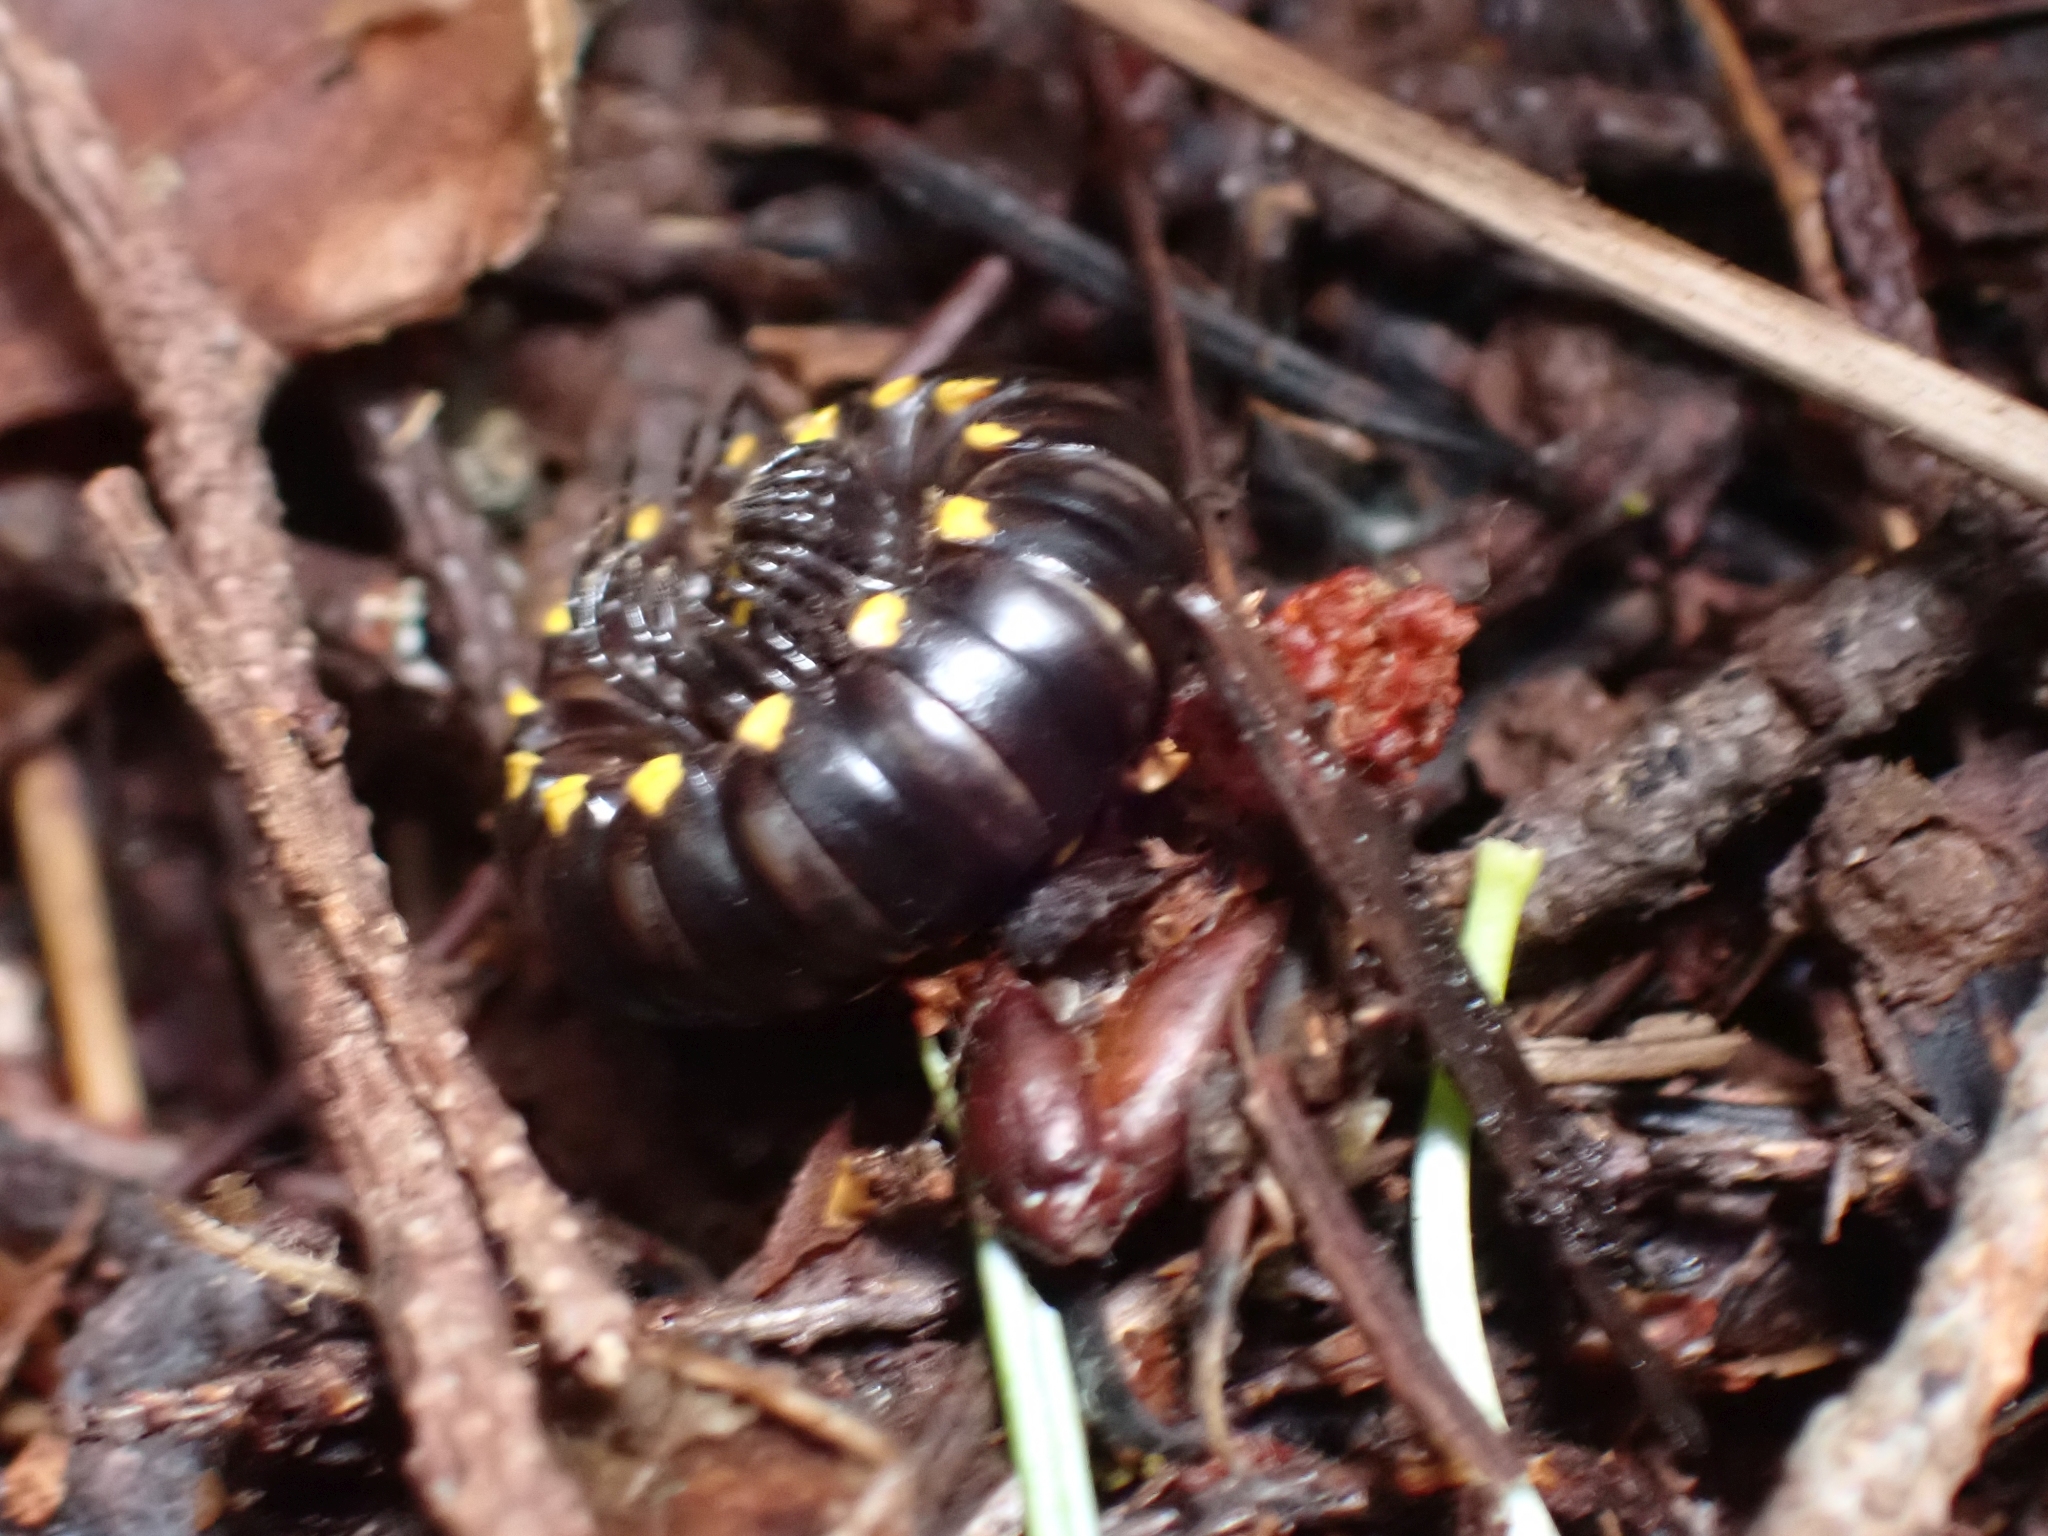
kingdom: Animalia
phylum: Arthropoda
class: Diplopoda
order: Polydesmida
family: Xystodesmidae
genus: Harpaphe
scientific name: Harpaphe haydeniana
